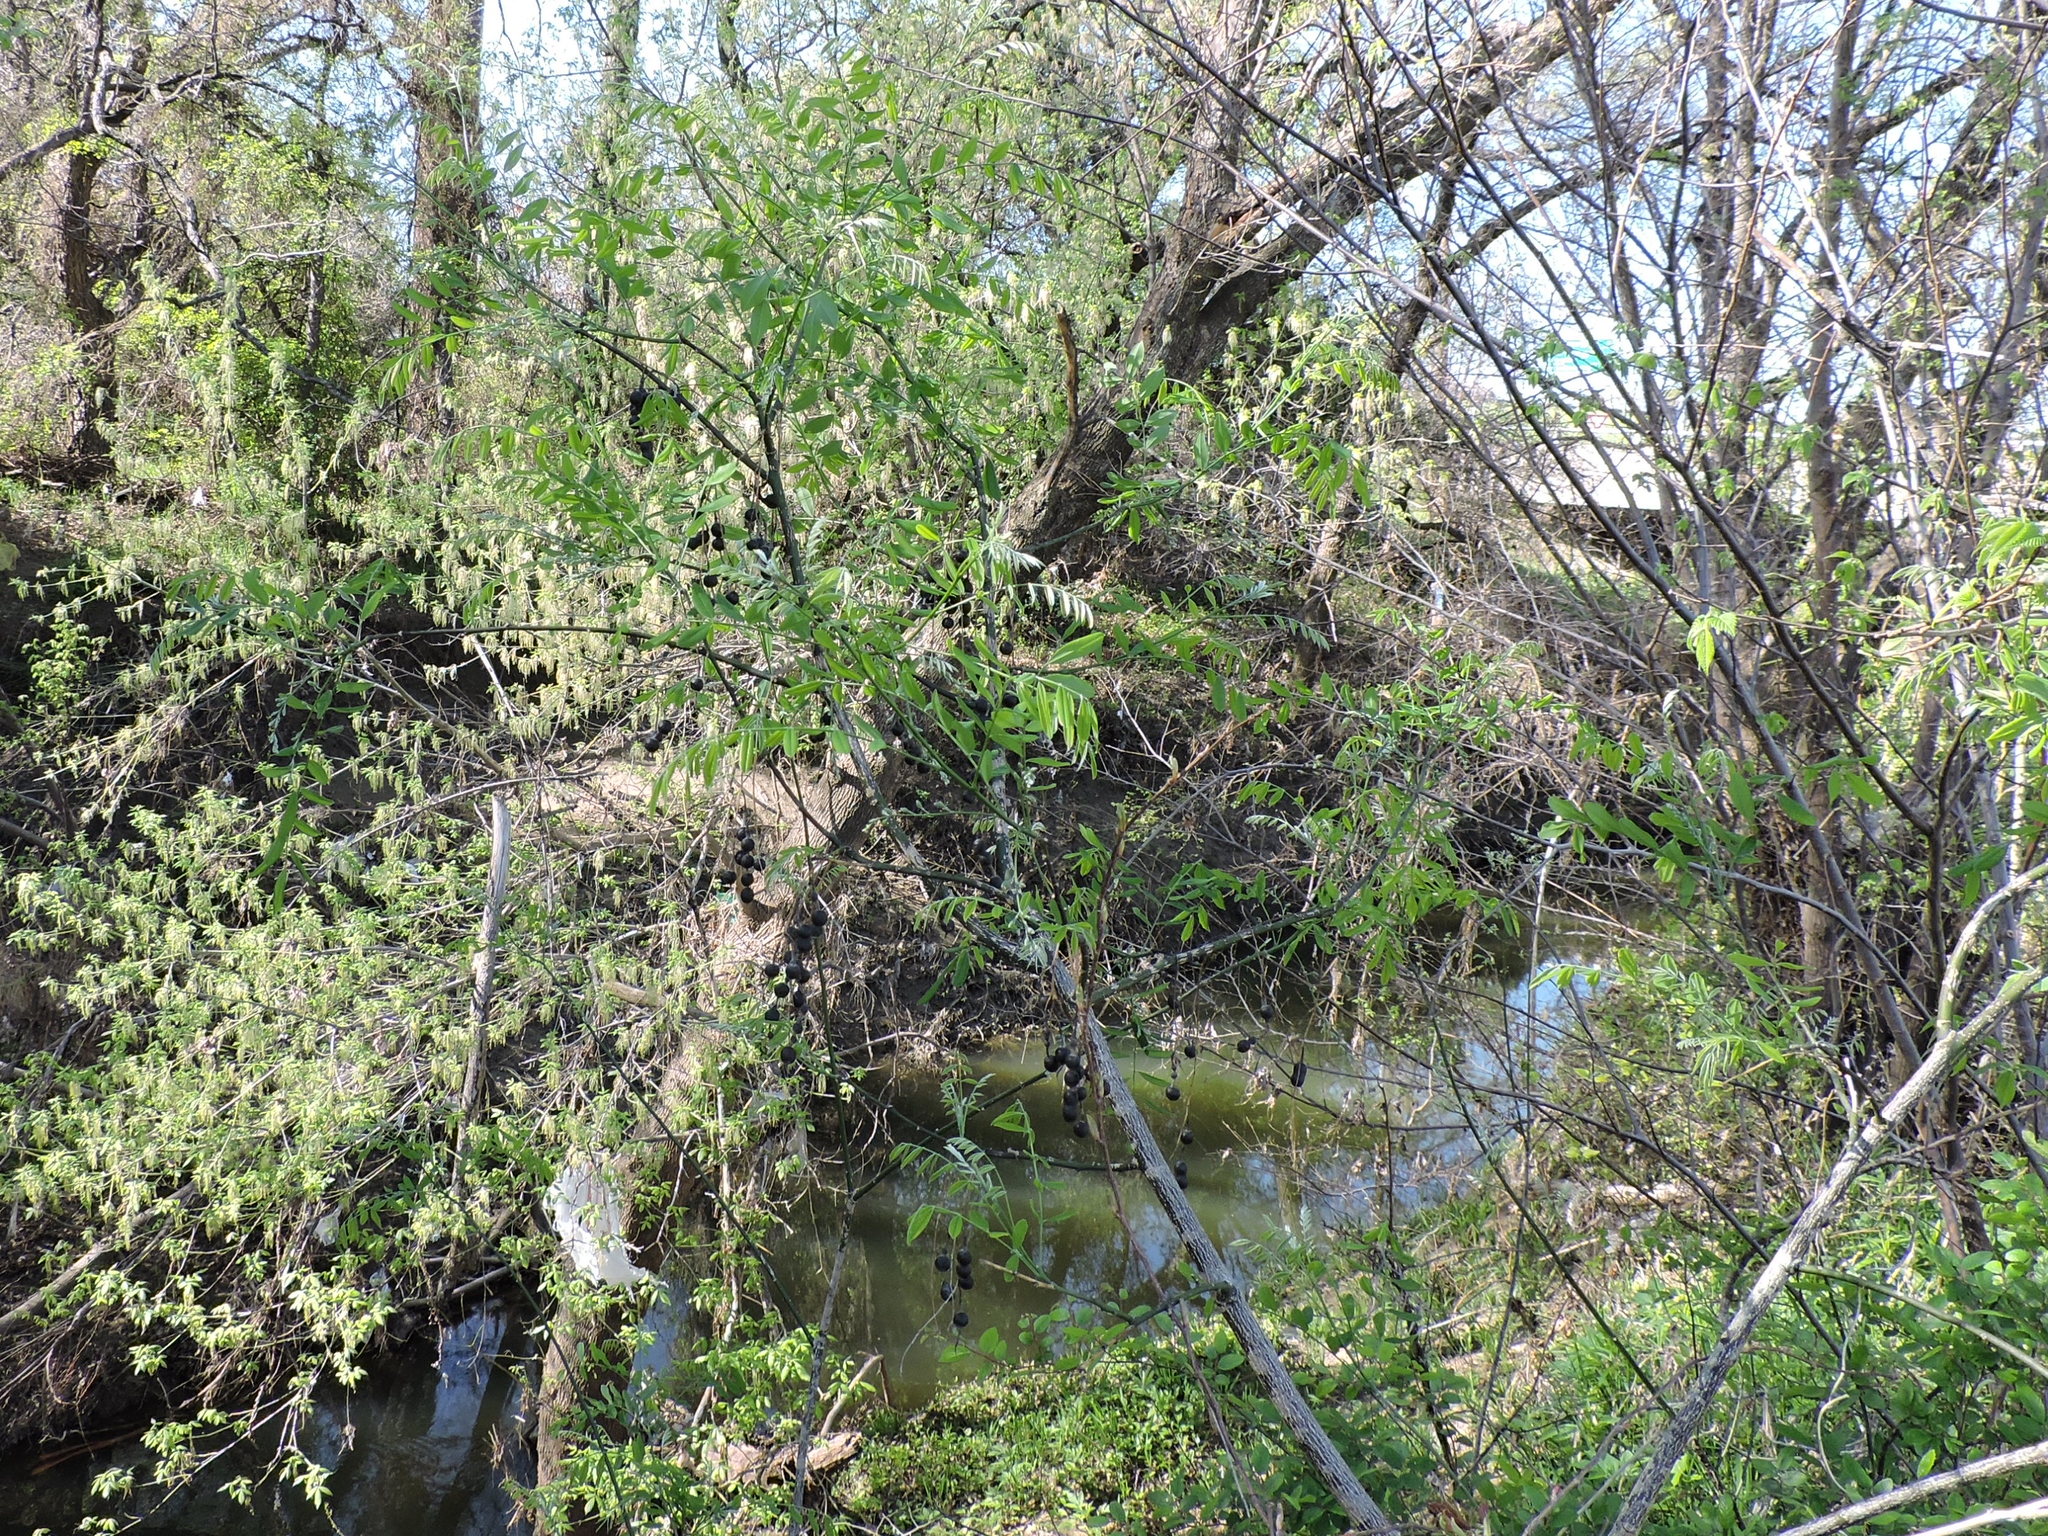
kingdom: Plantae
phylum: Tracheophyta
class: Magnoliopsida
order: Fabales
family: Fabaceae
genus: Styphnolobium
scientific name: Styphnolobium affine
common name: Texas sophora
